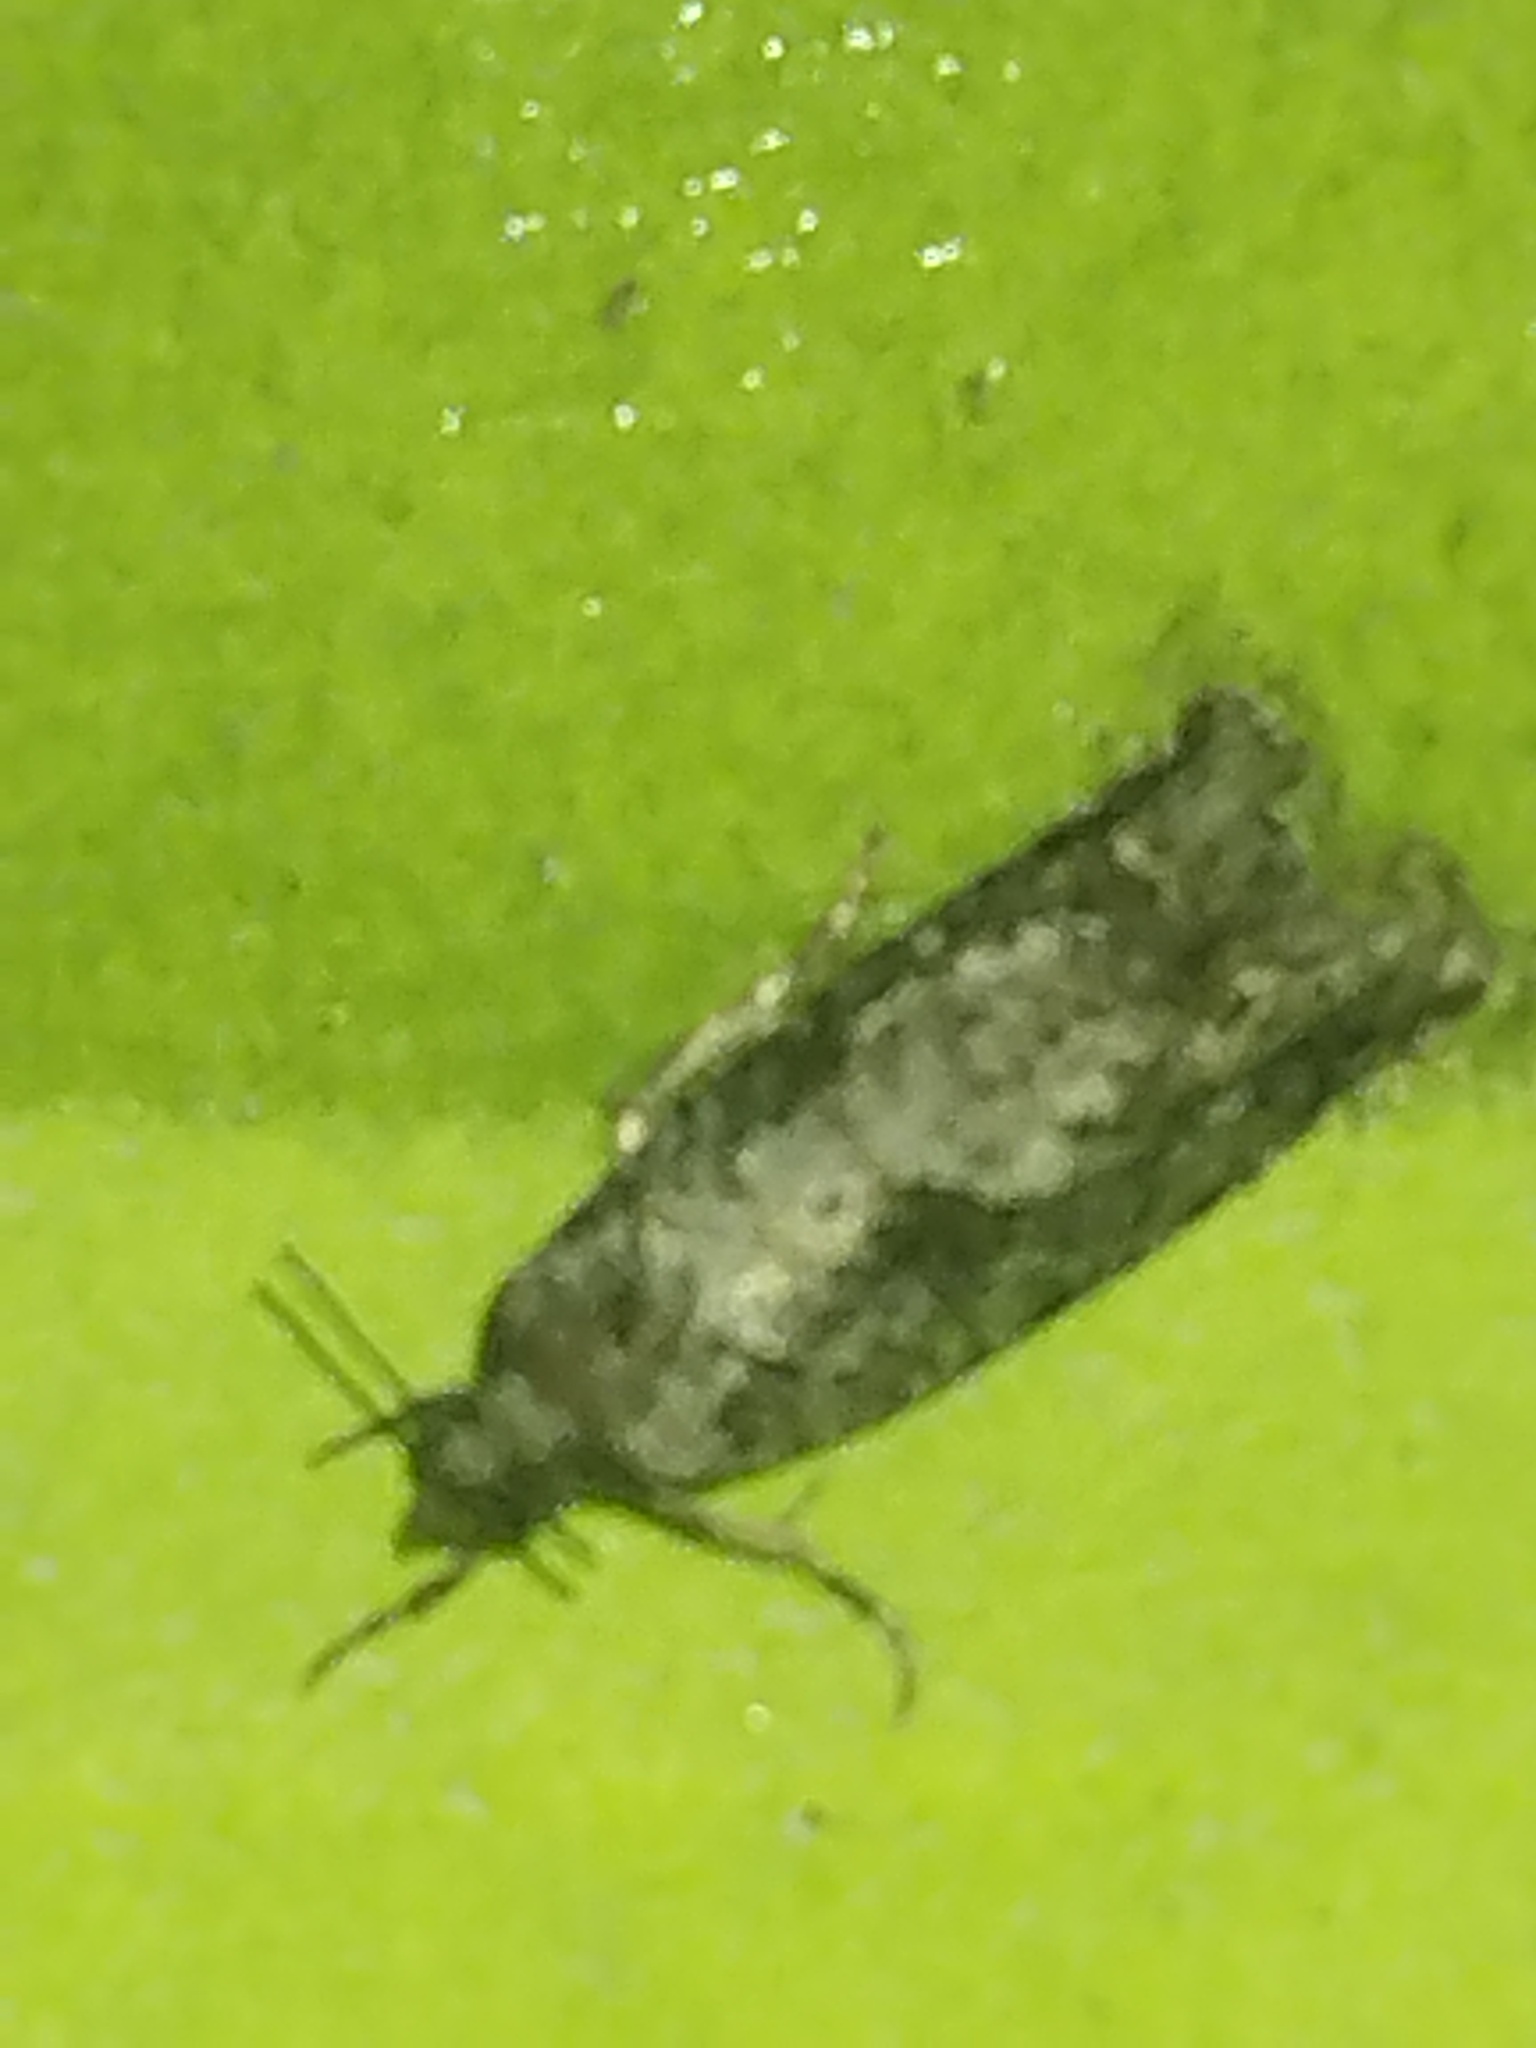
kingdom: Animalia
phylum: Arthropoda
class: Insecta
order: Lepidoptera
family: Tortricidae
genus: Gretchena
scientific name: Gretchena bolliana
